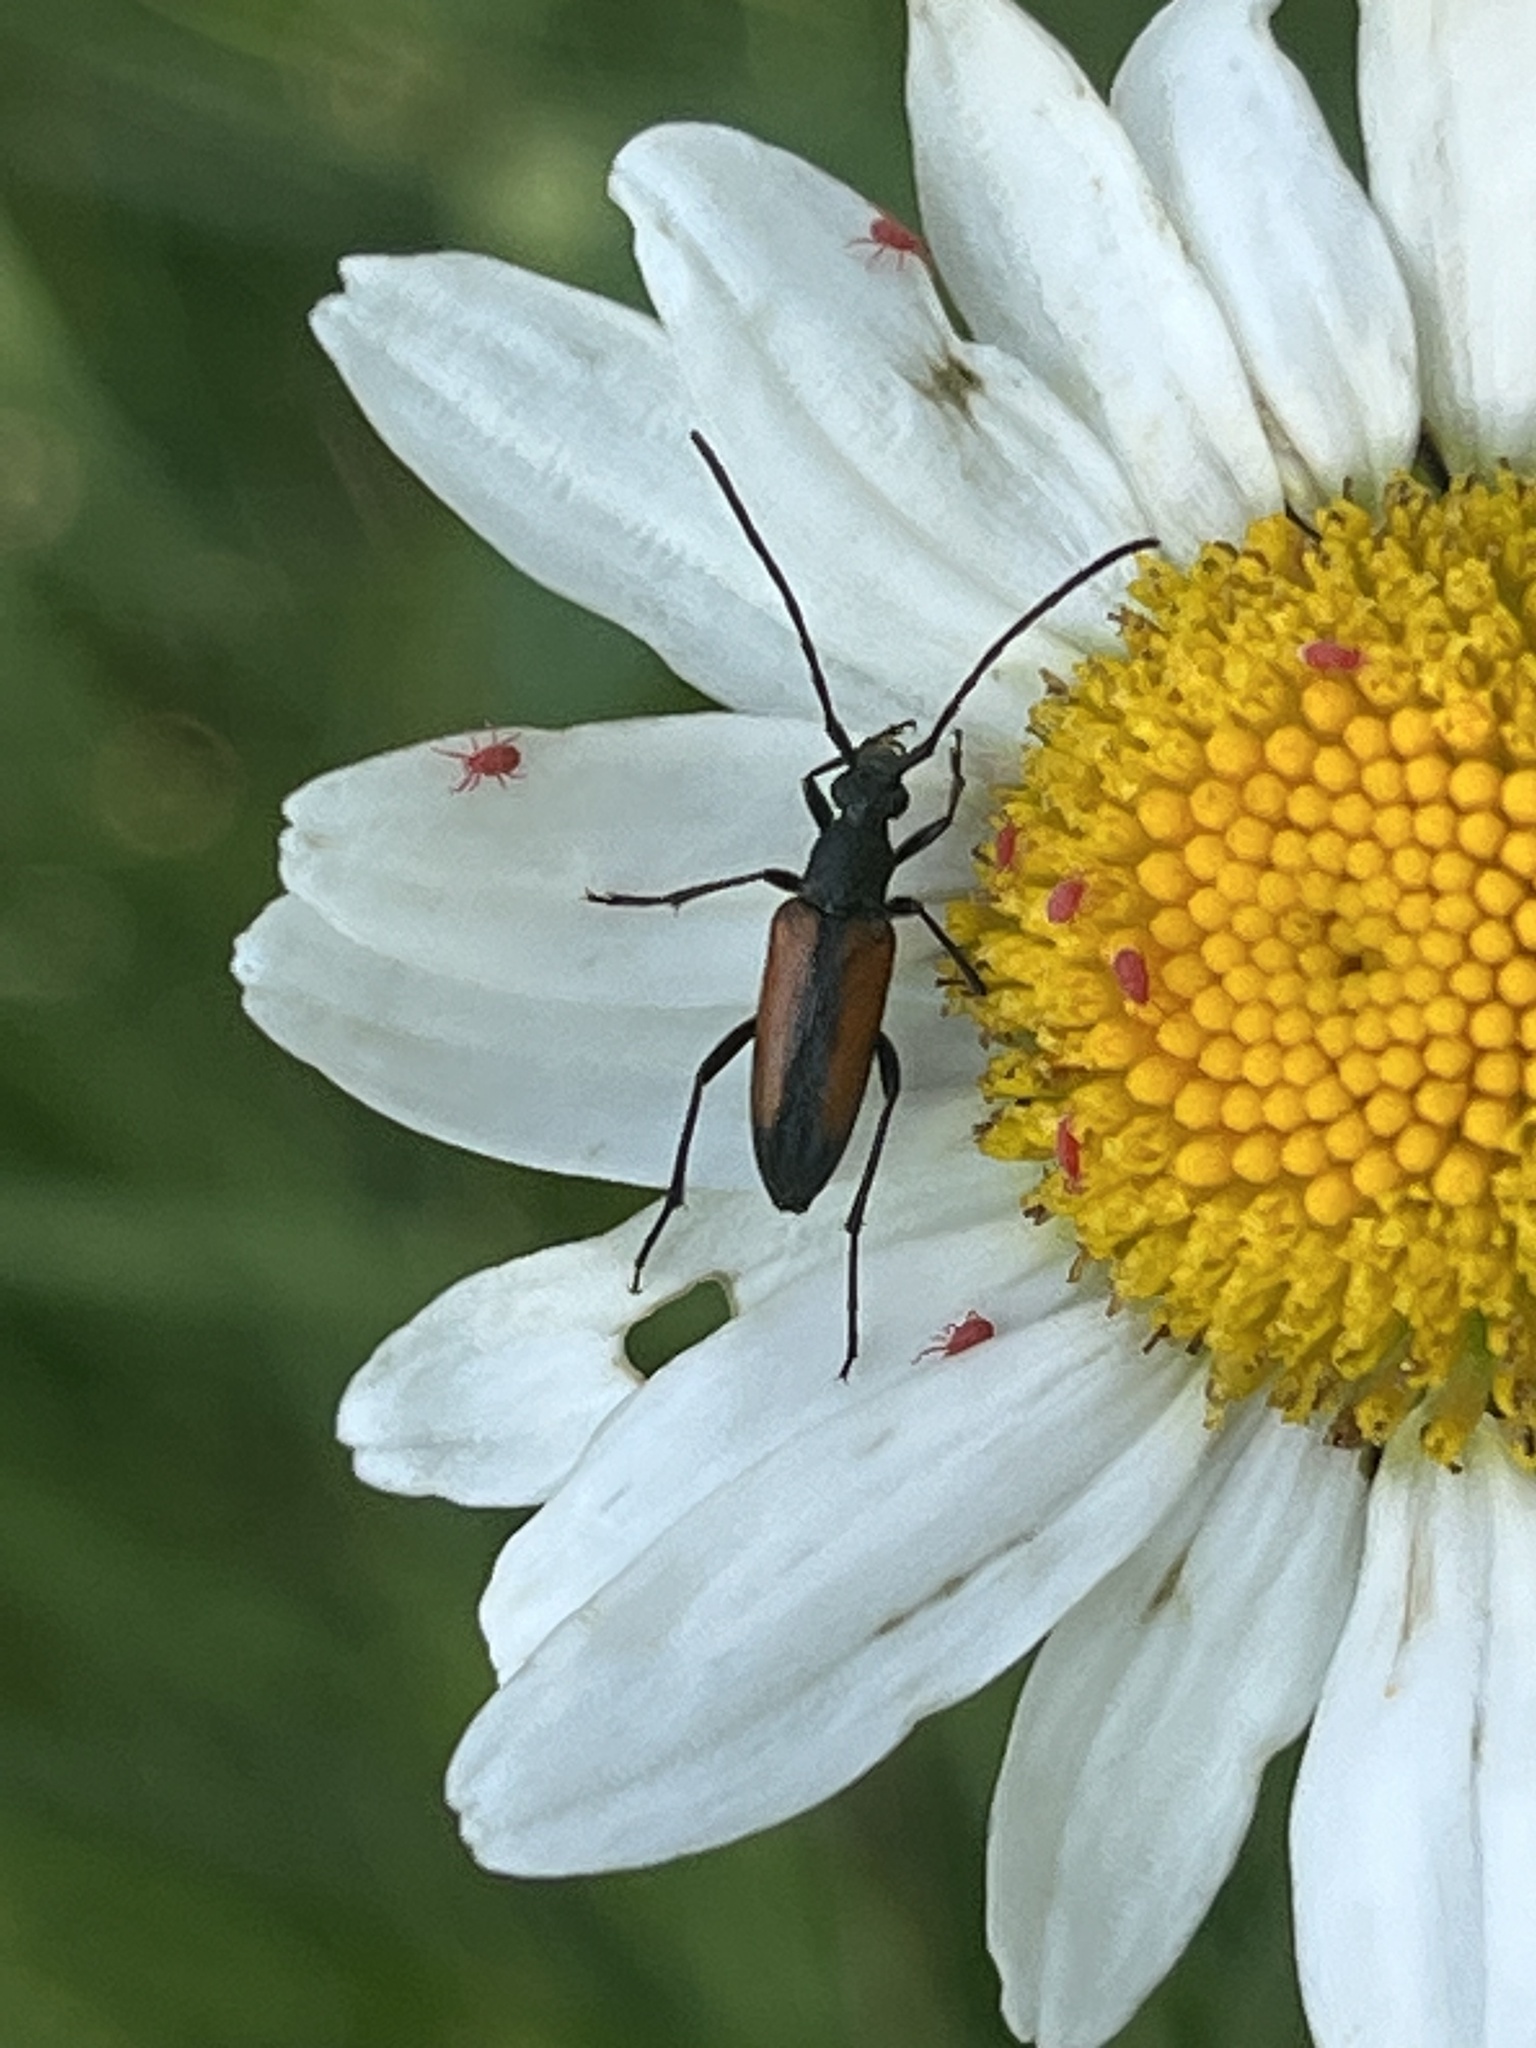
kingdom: Animalia
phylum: Arthropoda
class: Insecta
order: Coleoptera
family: Cerambycidae
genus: Stenurella
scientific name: Stenurella melanura
